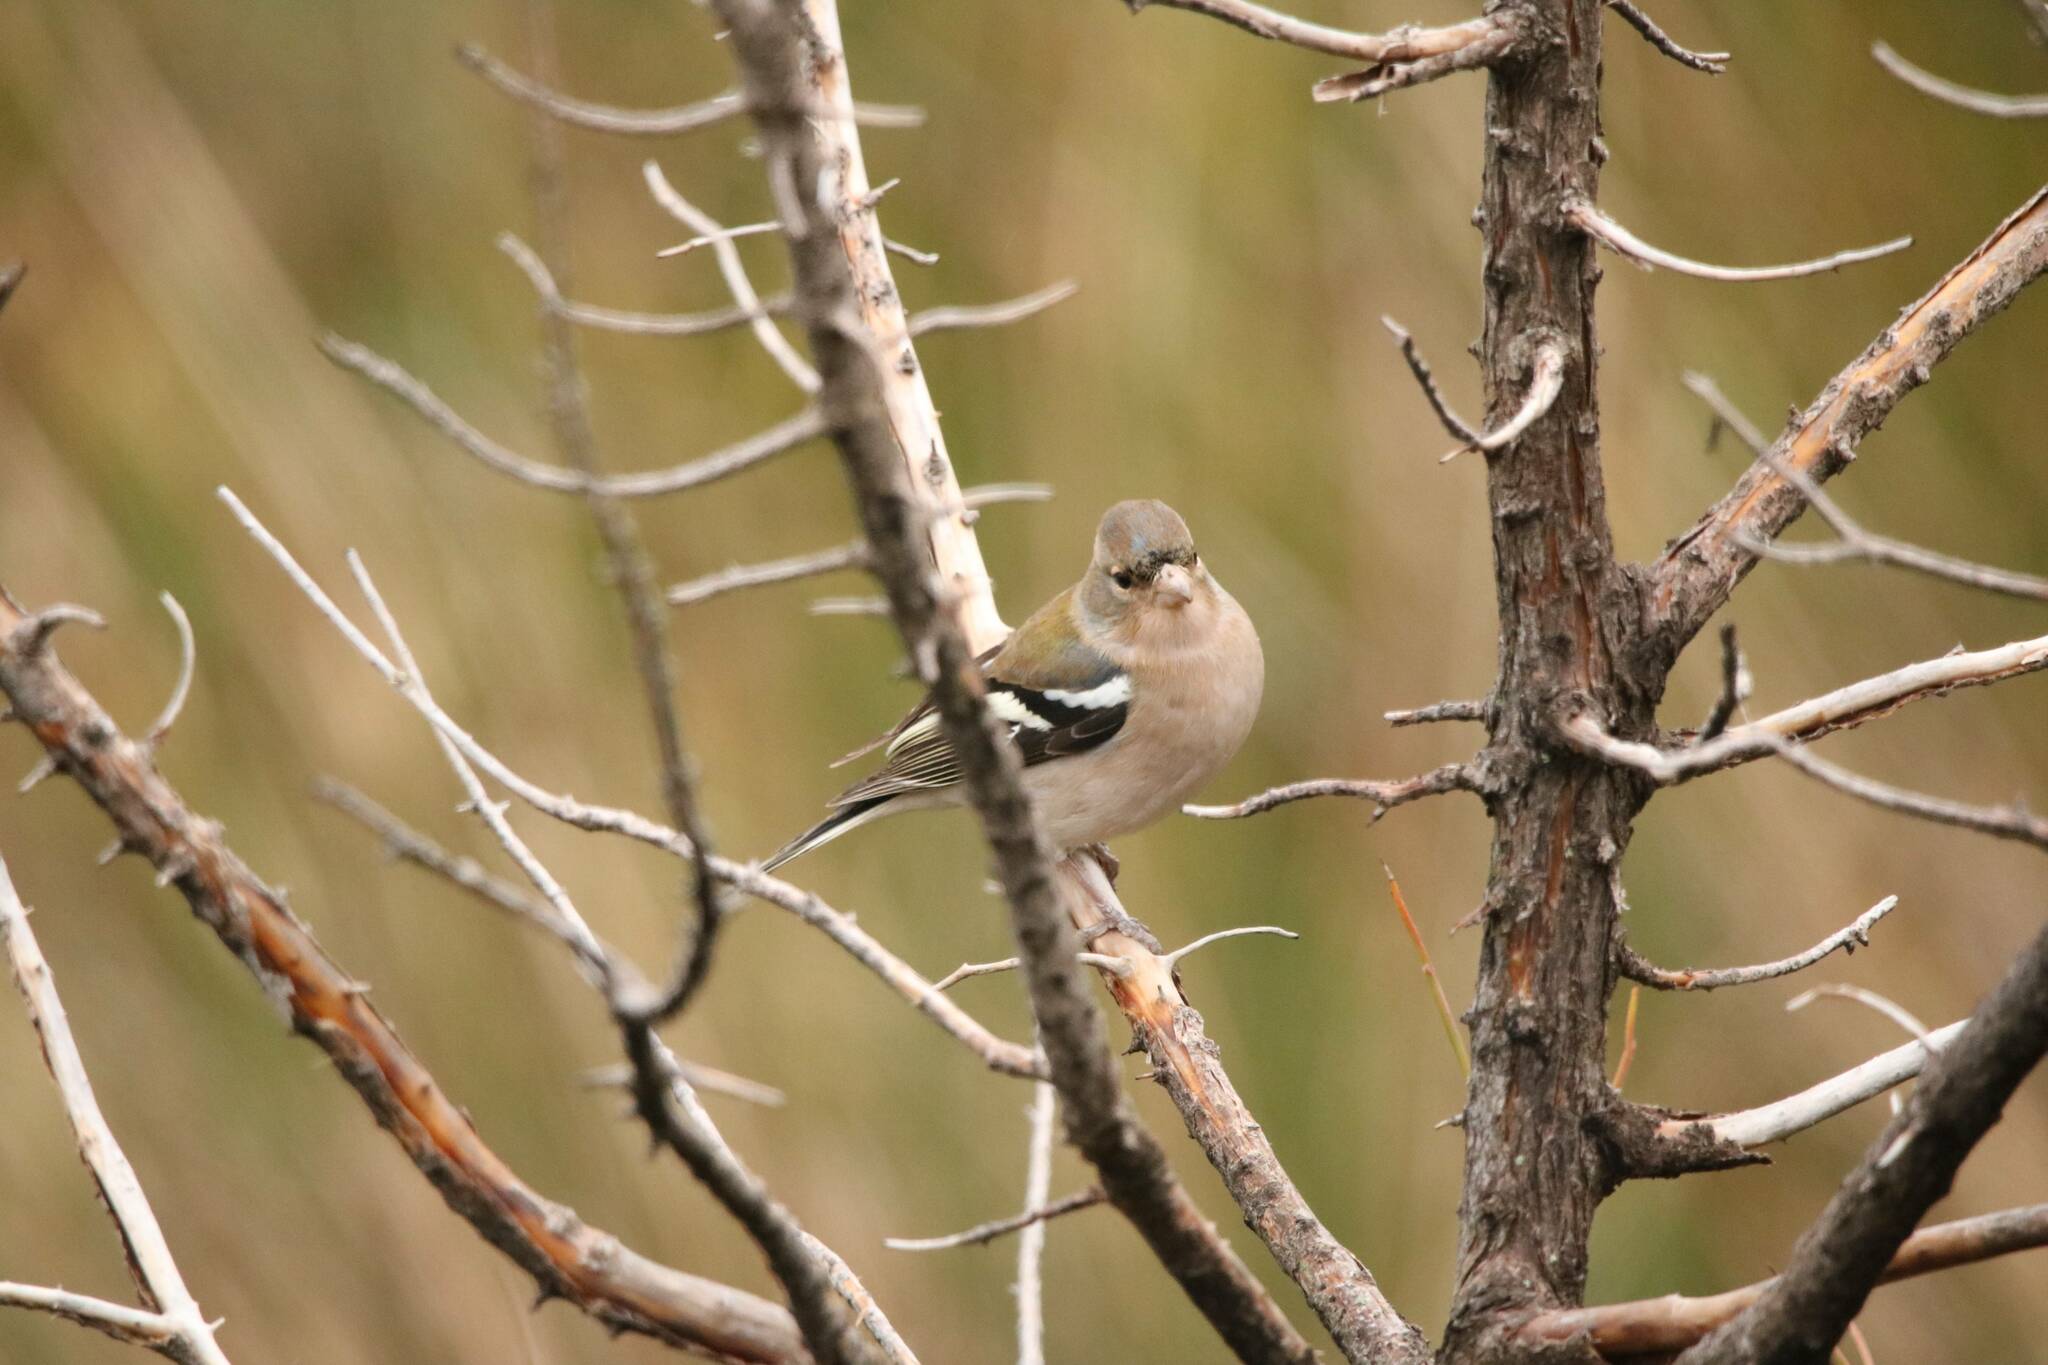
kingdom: Animalia
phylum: Chordata
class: Aves
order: Passeriformes
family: Fringillidae
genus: Fringilla
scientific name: Fringilla spodiogenys
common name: African chaffinch
